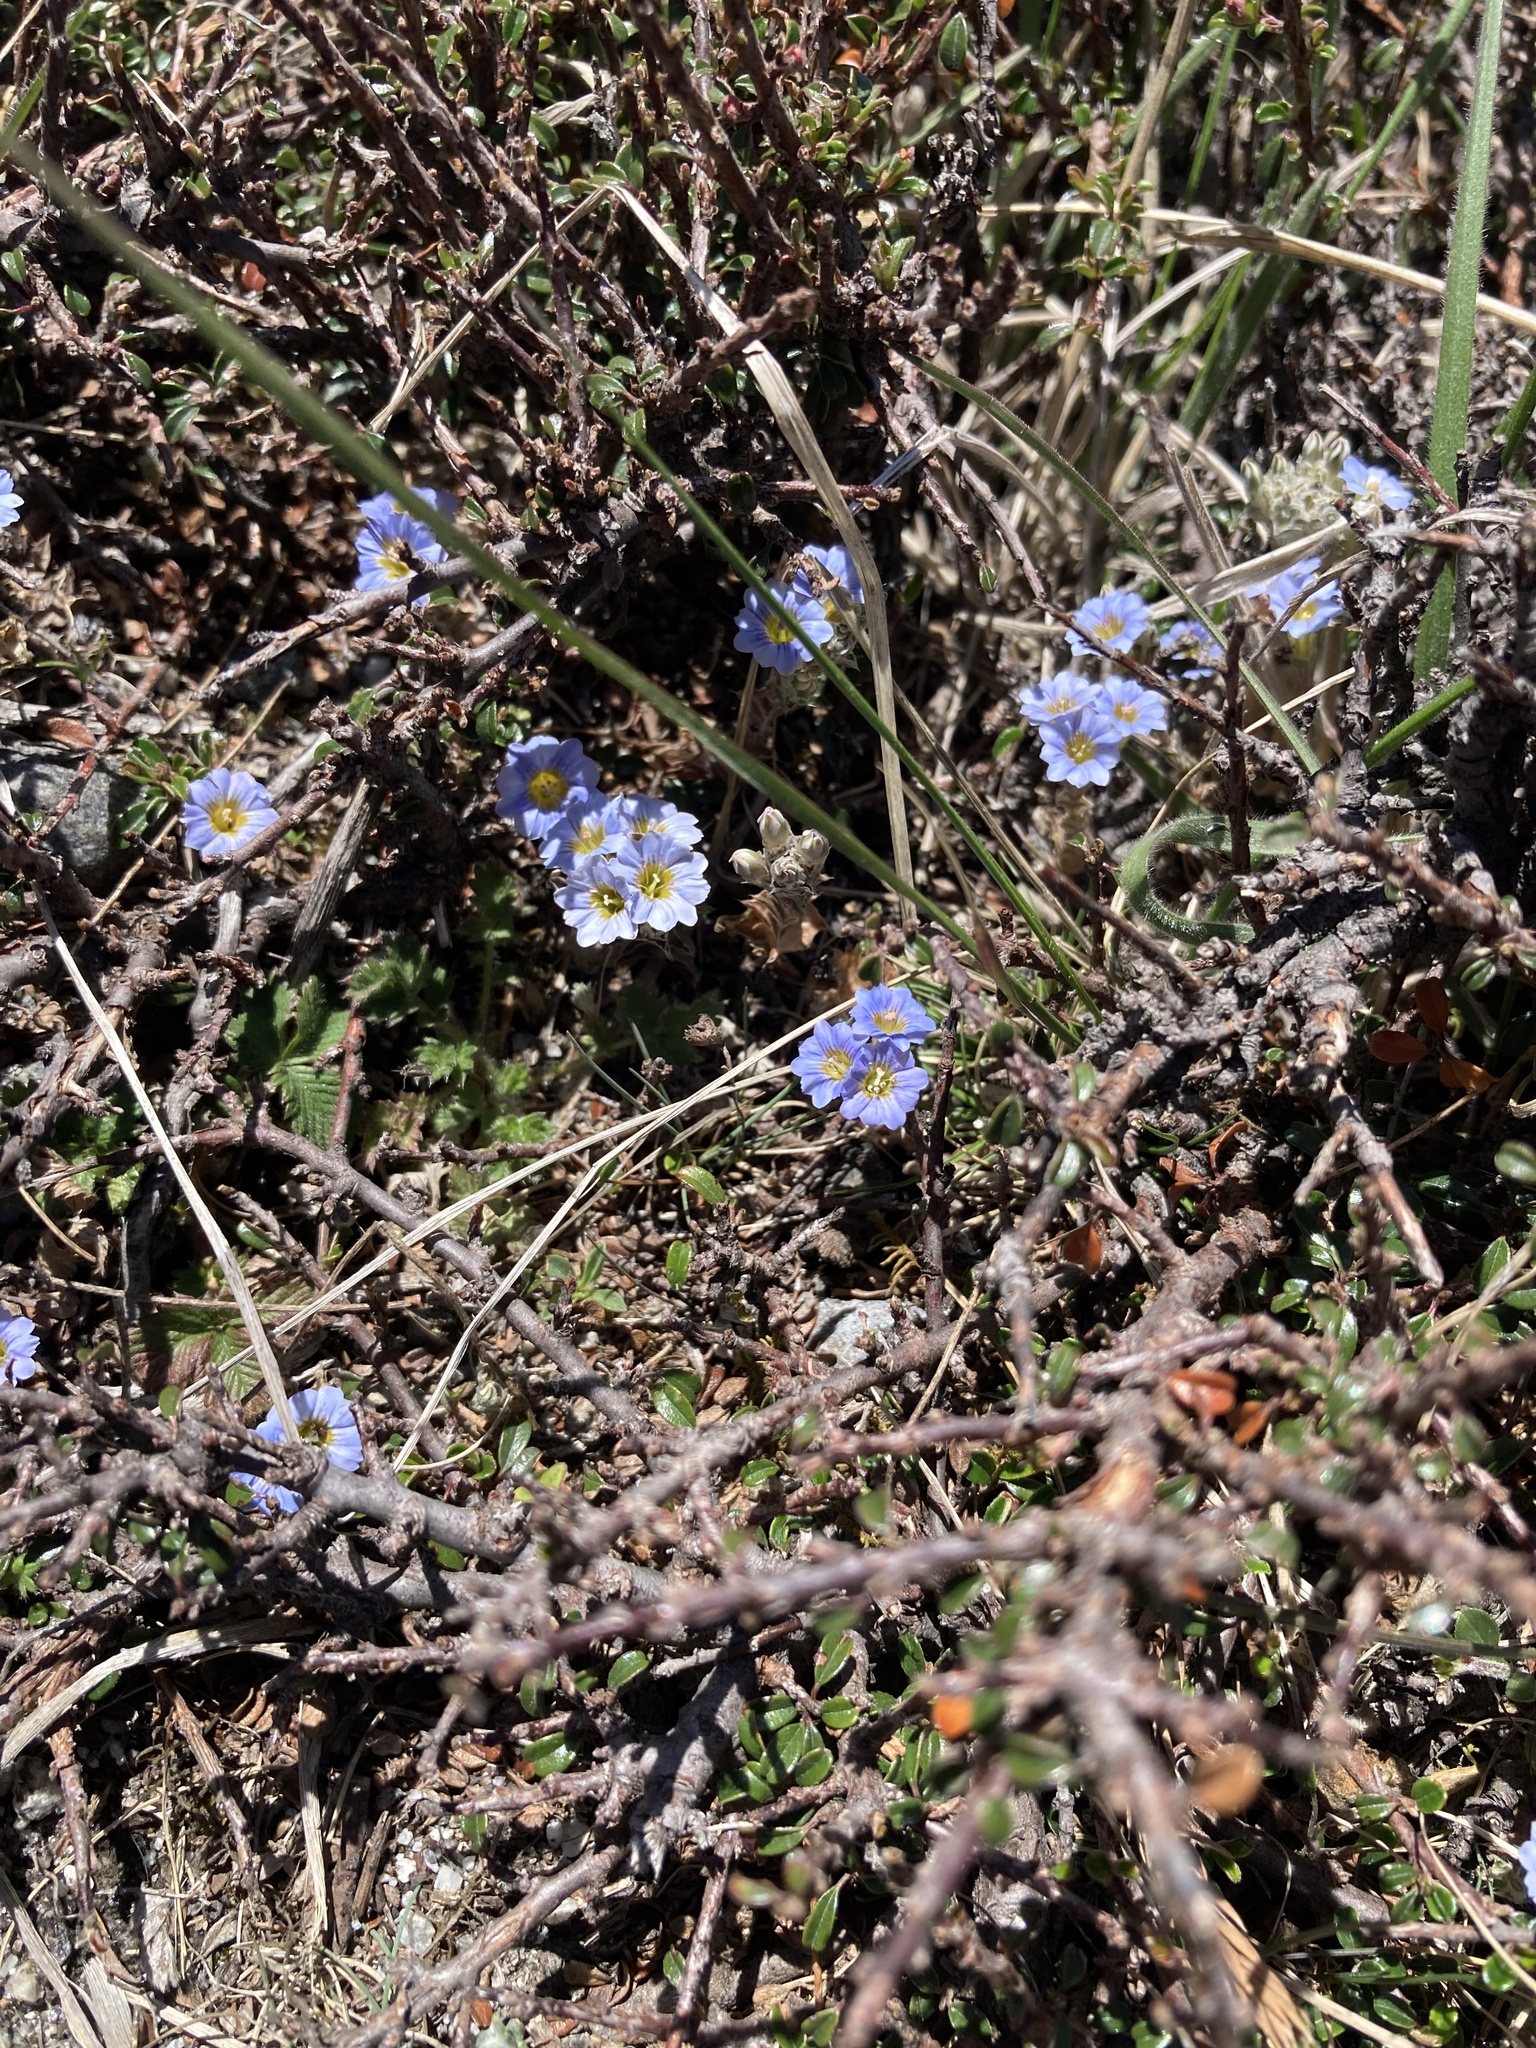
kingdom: Plantae
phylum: Tracheophyta
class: Magnoliopsida
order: Gentianales
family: Gentianaceae
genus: Gentiana
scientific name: Gentiana albicalyx
